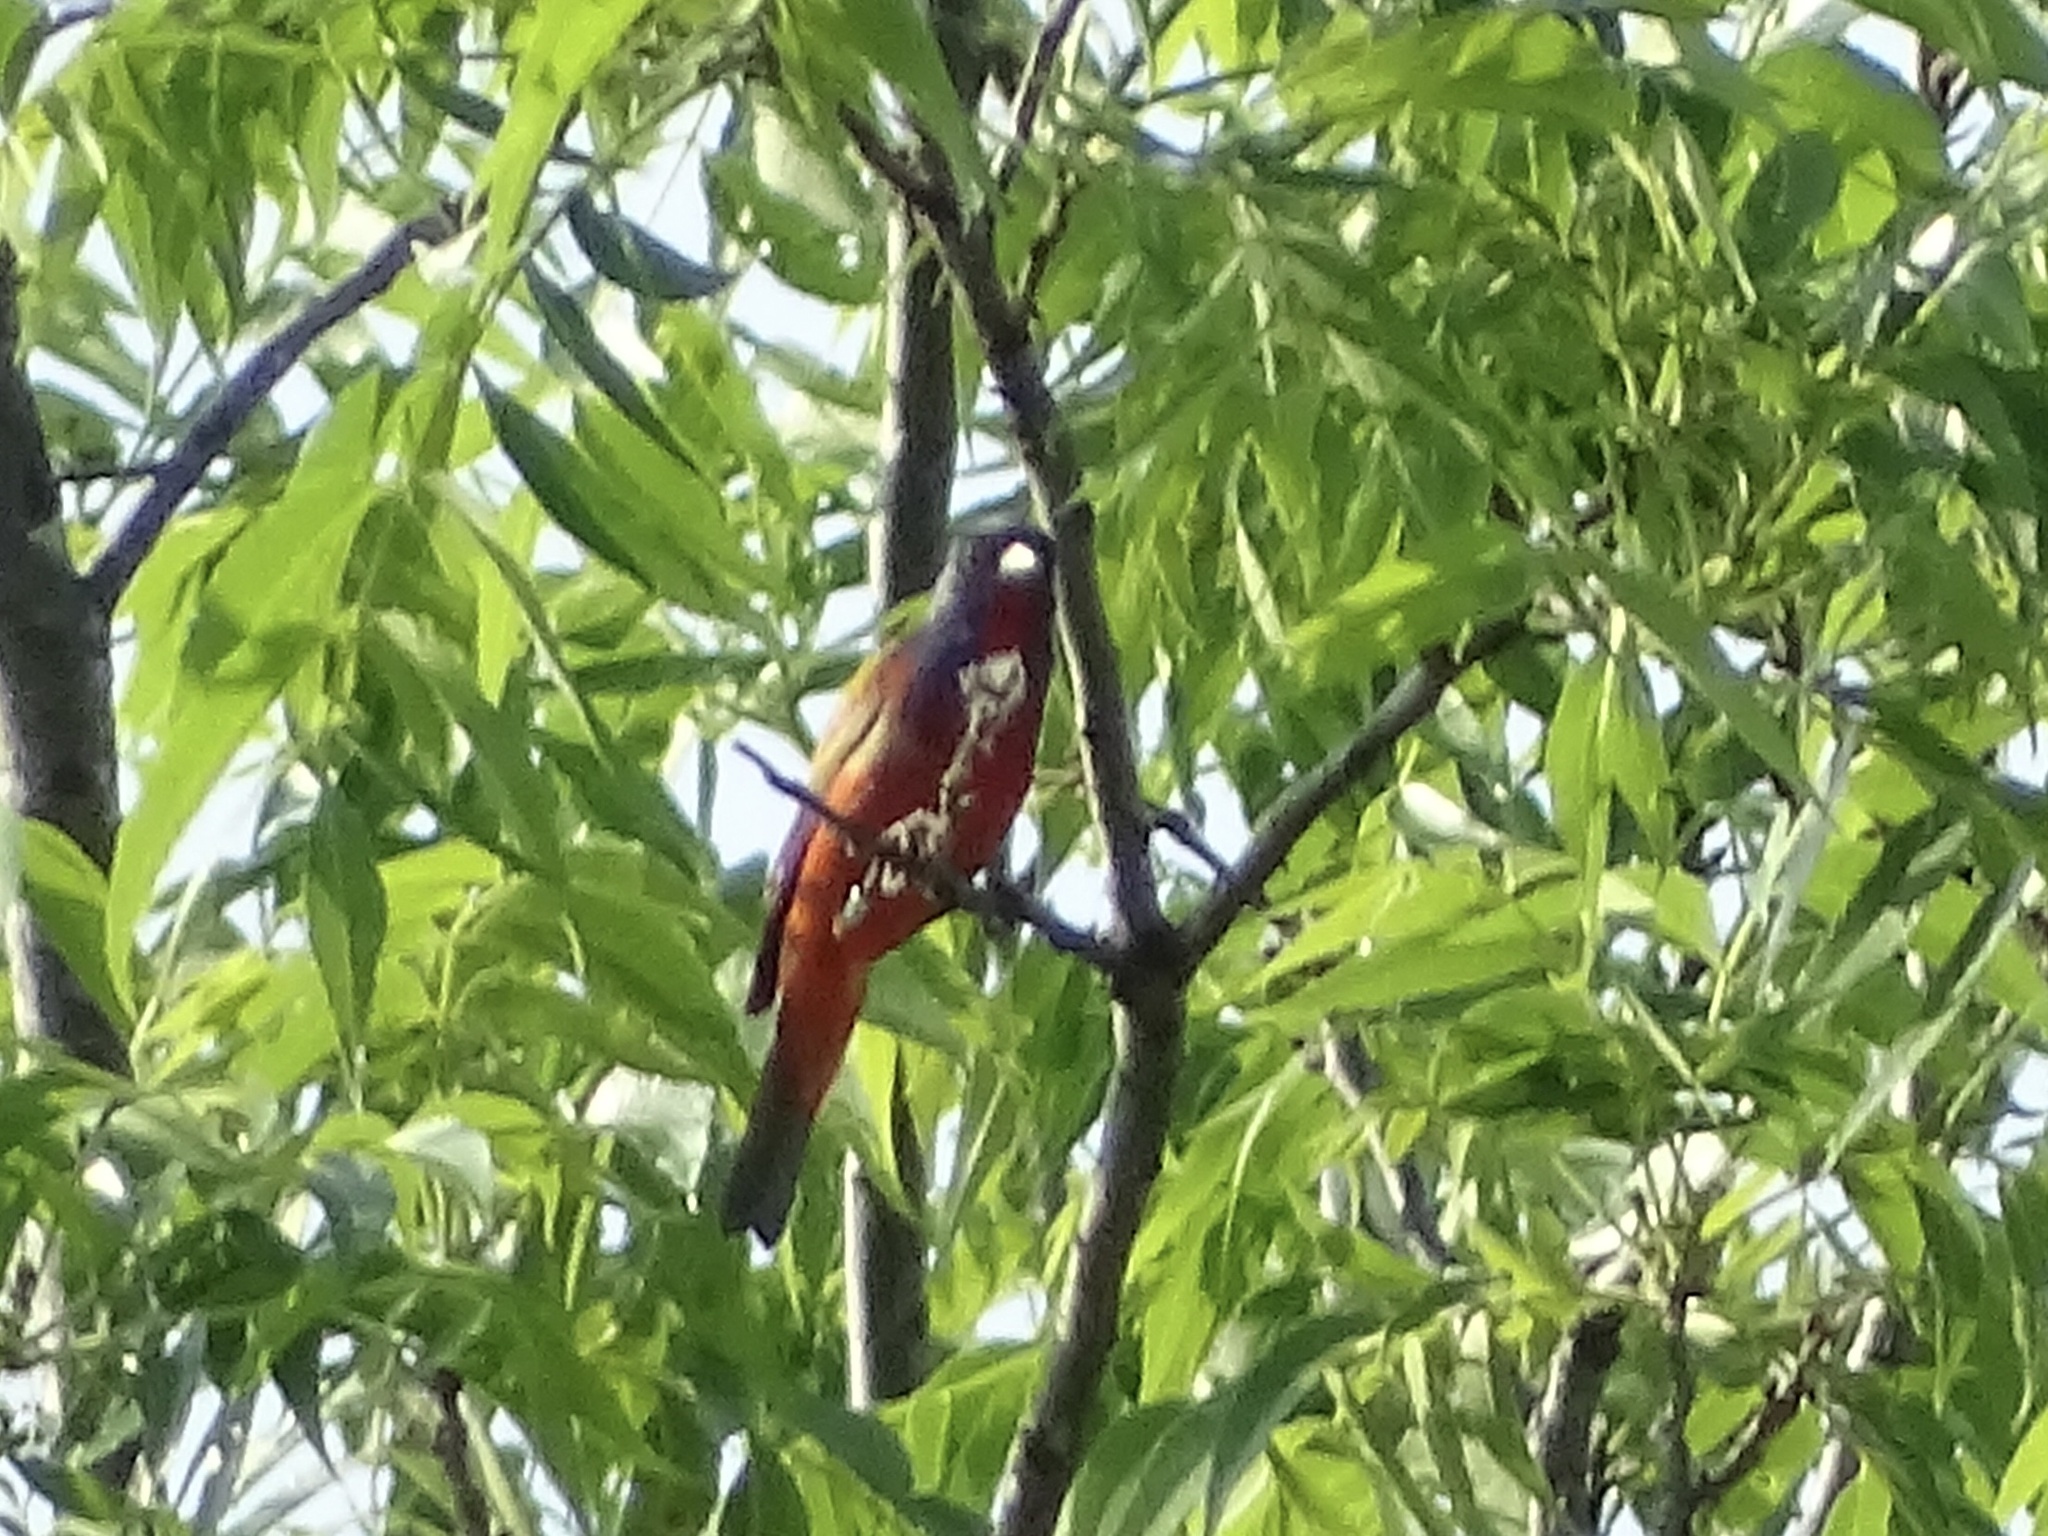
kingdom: Animalia
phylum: Chordata
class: Aves
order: Passeriformes
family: Cardinalidae
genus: Passerina
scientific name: Passerina ciris
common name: Painted bunting
